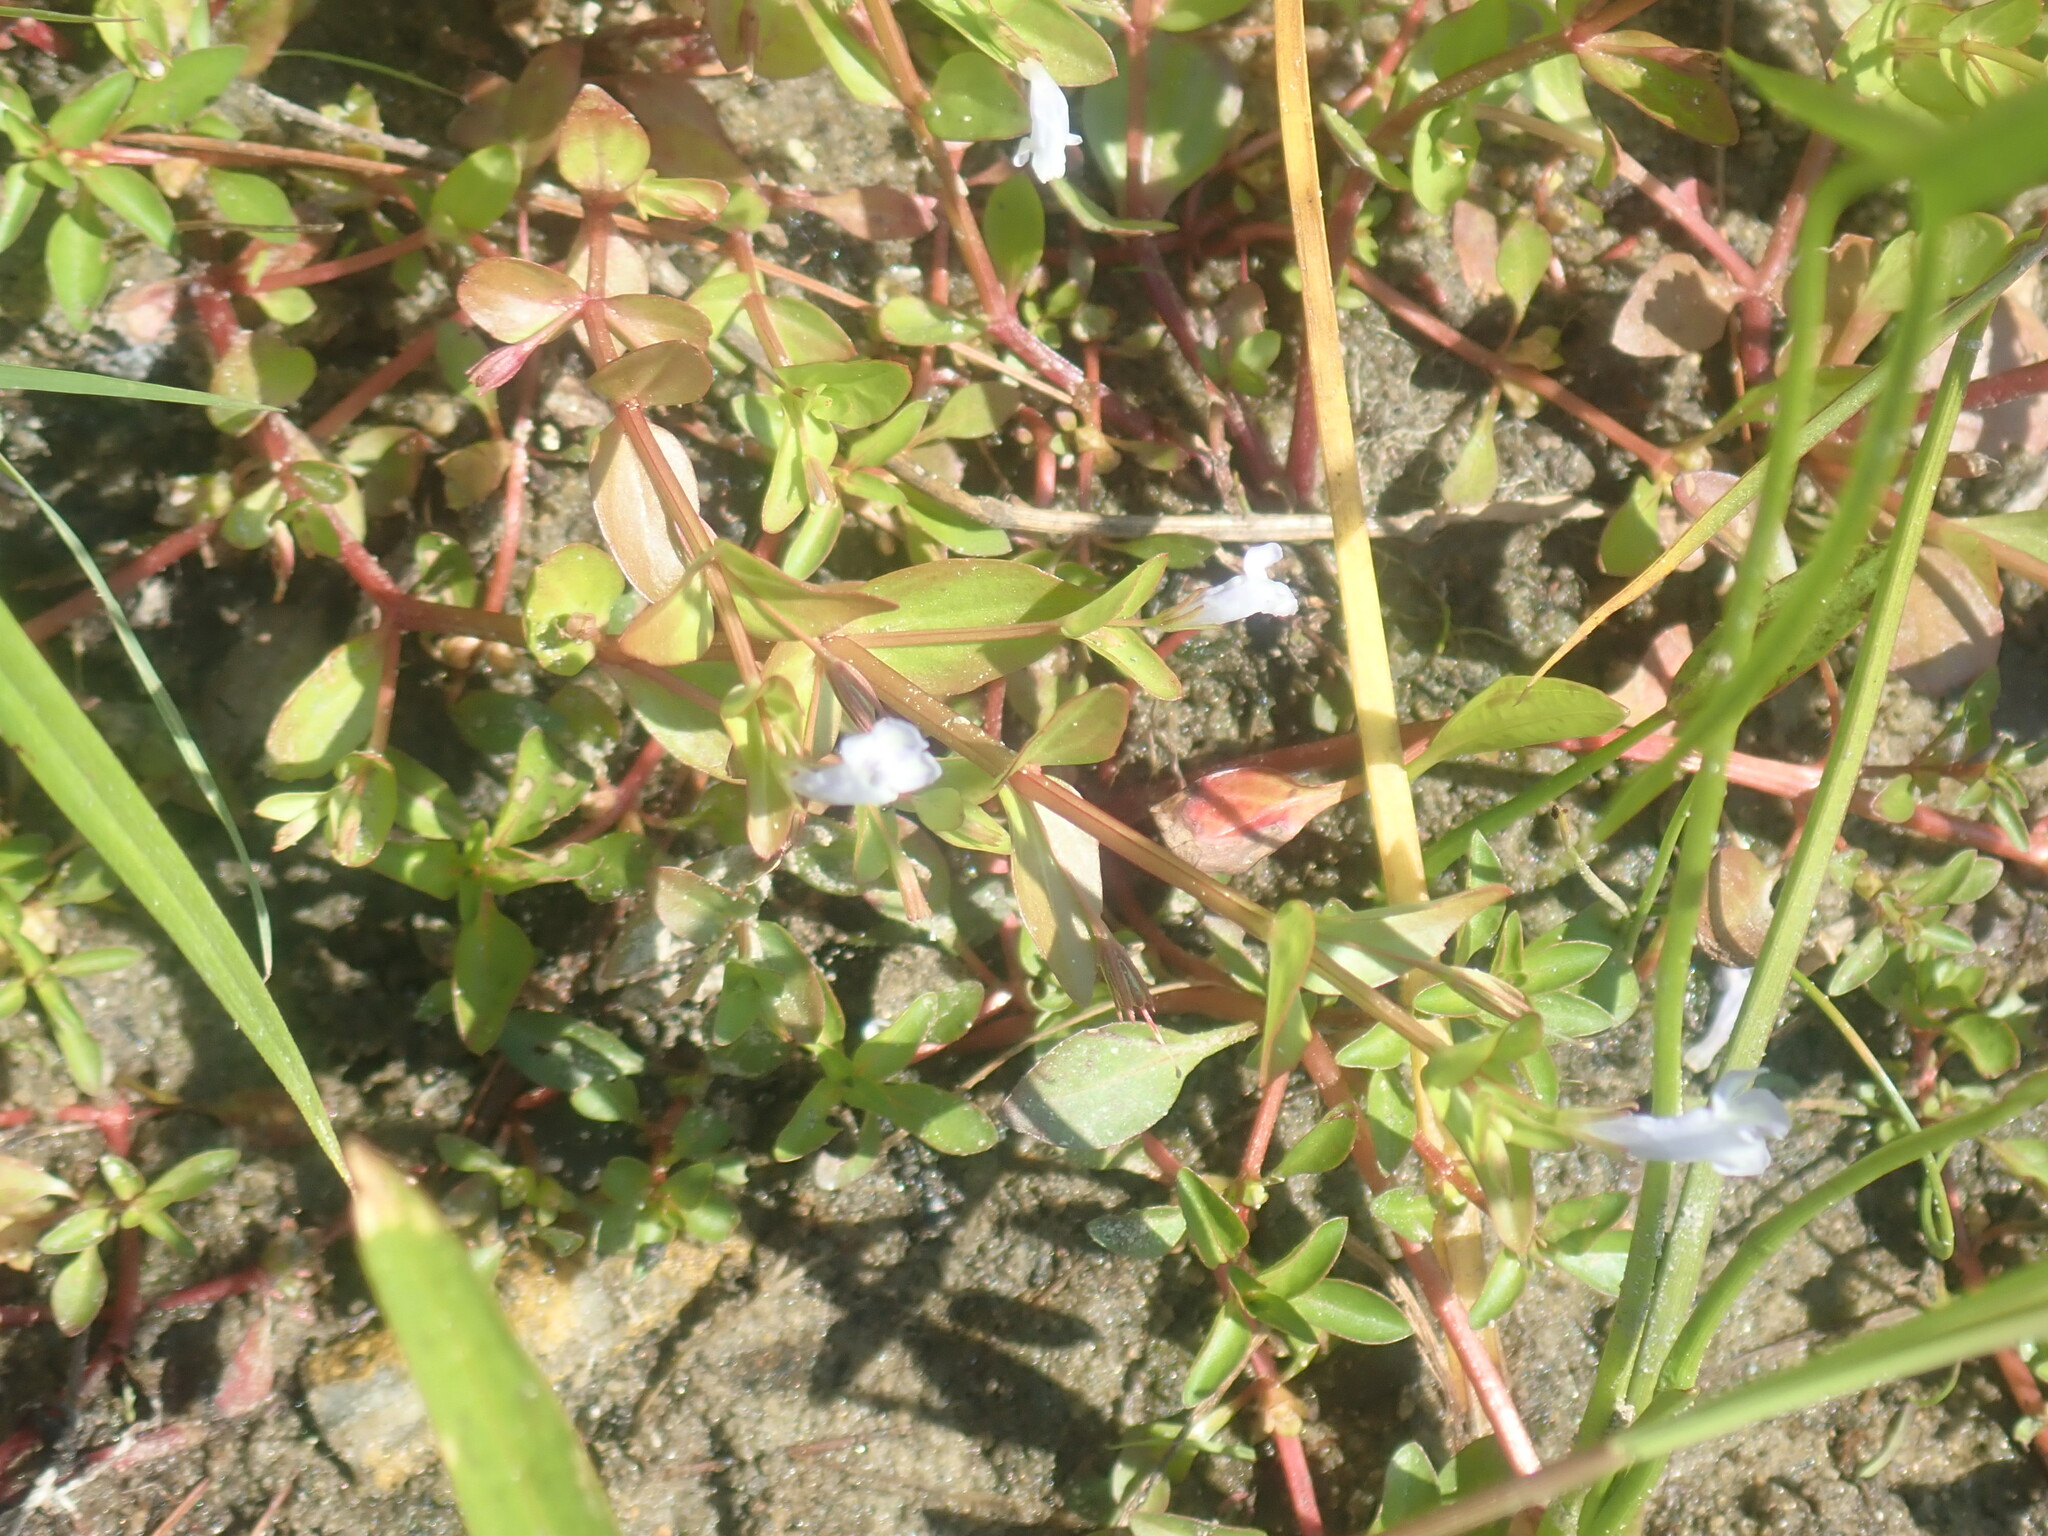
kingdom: Plantae
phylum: Tracheophyta
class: Magnoliopsida
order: Lamiales
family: Linderniaceae
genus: Lindernia
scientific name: Lindernia dubia
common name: Annual false pimpernel
